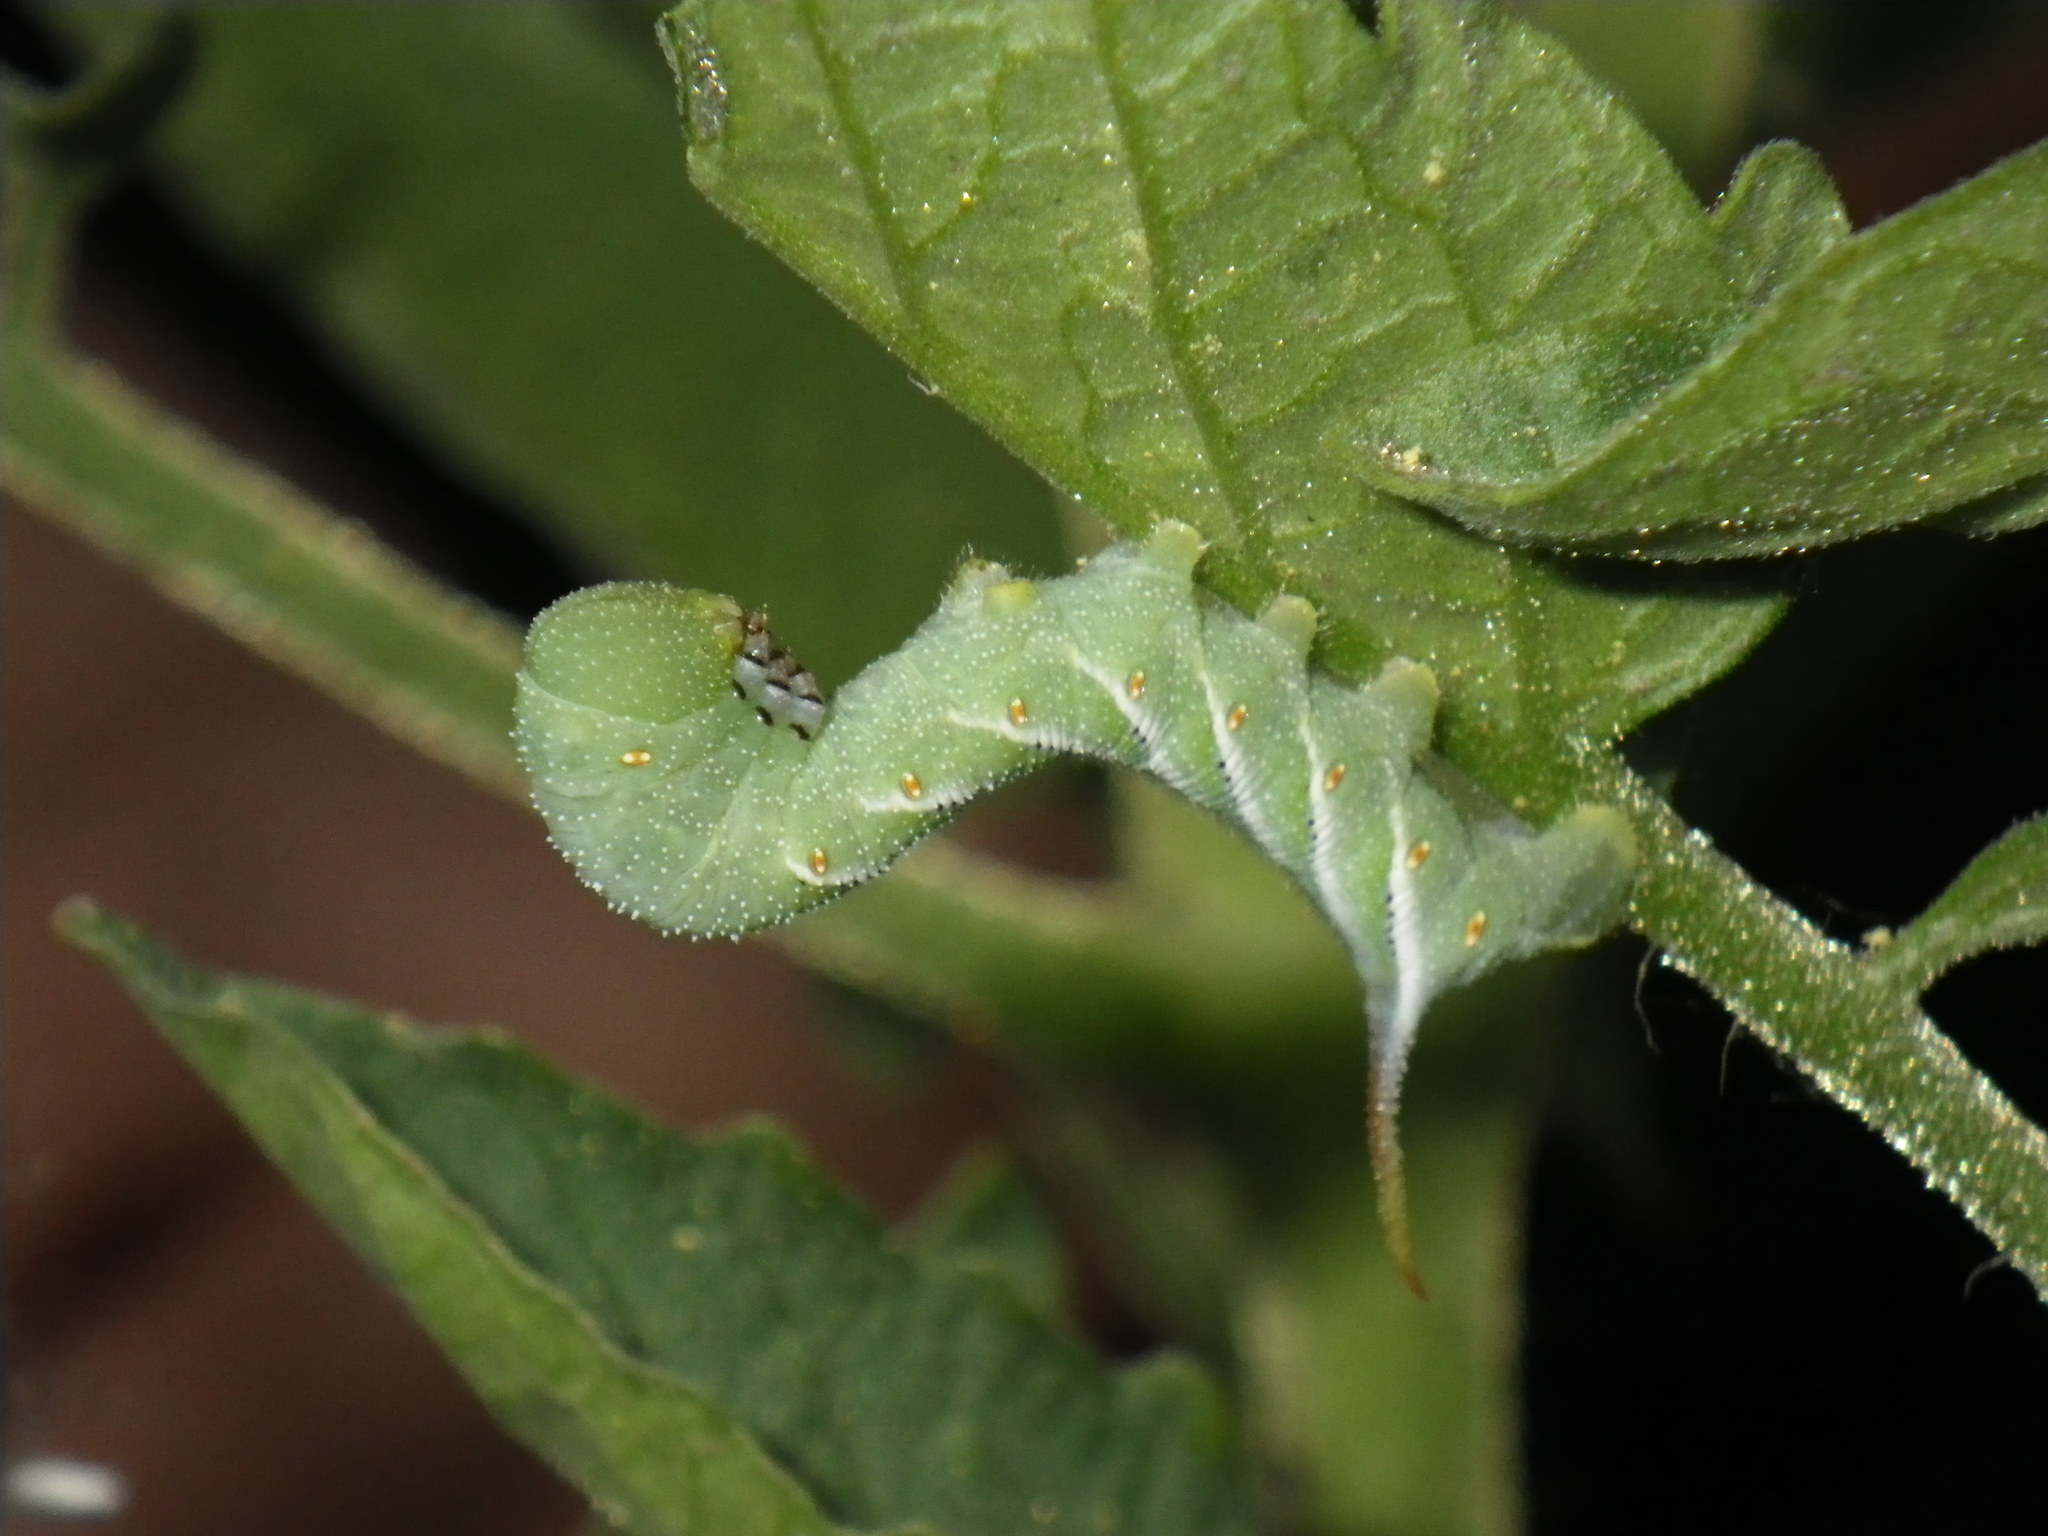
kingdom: Animalia
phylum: Arthropoda
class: Insecta
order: Lepidoptera
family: Sphingidae
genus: Manduca
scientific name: Manduca sexta
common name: Carolina sphinx
